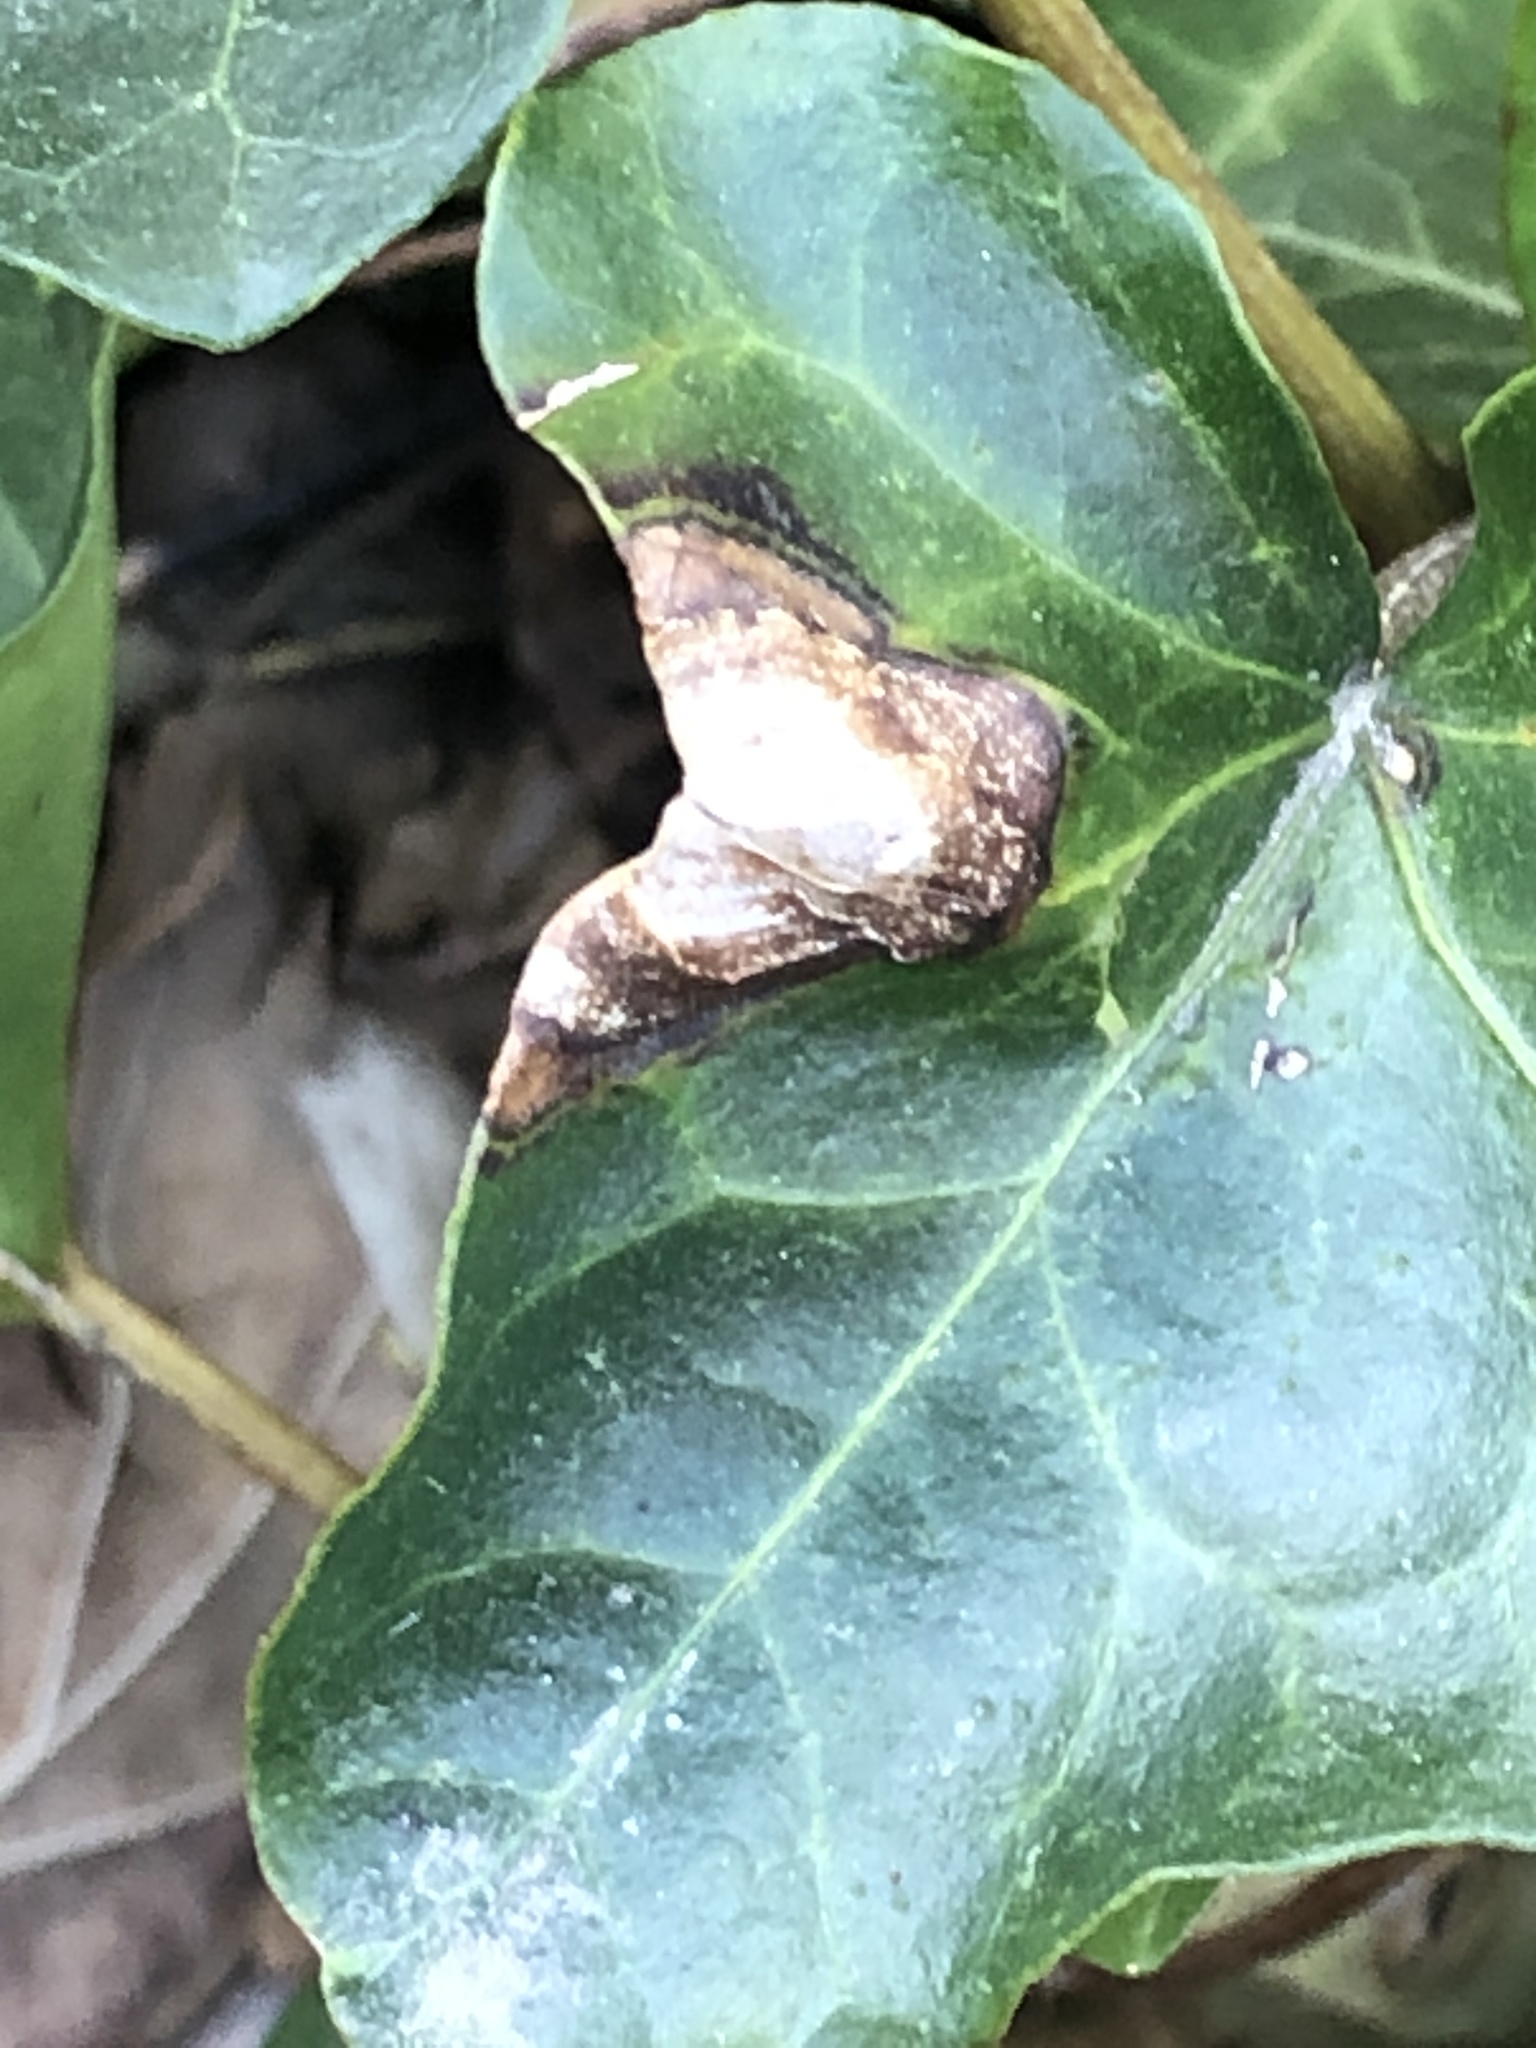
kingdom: Fungi
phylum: Ascomycota
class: Dothideomycetes
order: Pleosporales
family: Didymellaceae
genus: Boeremia
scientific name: Boeremia hedericola
